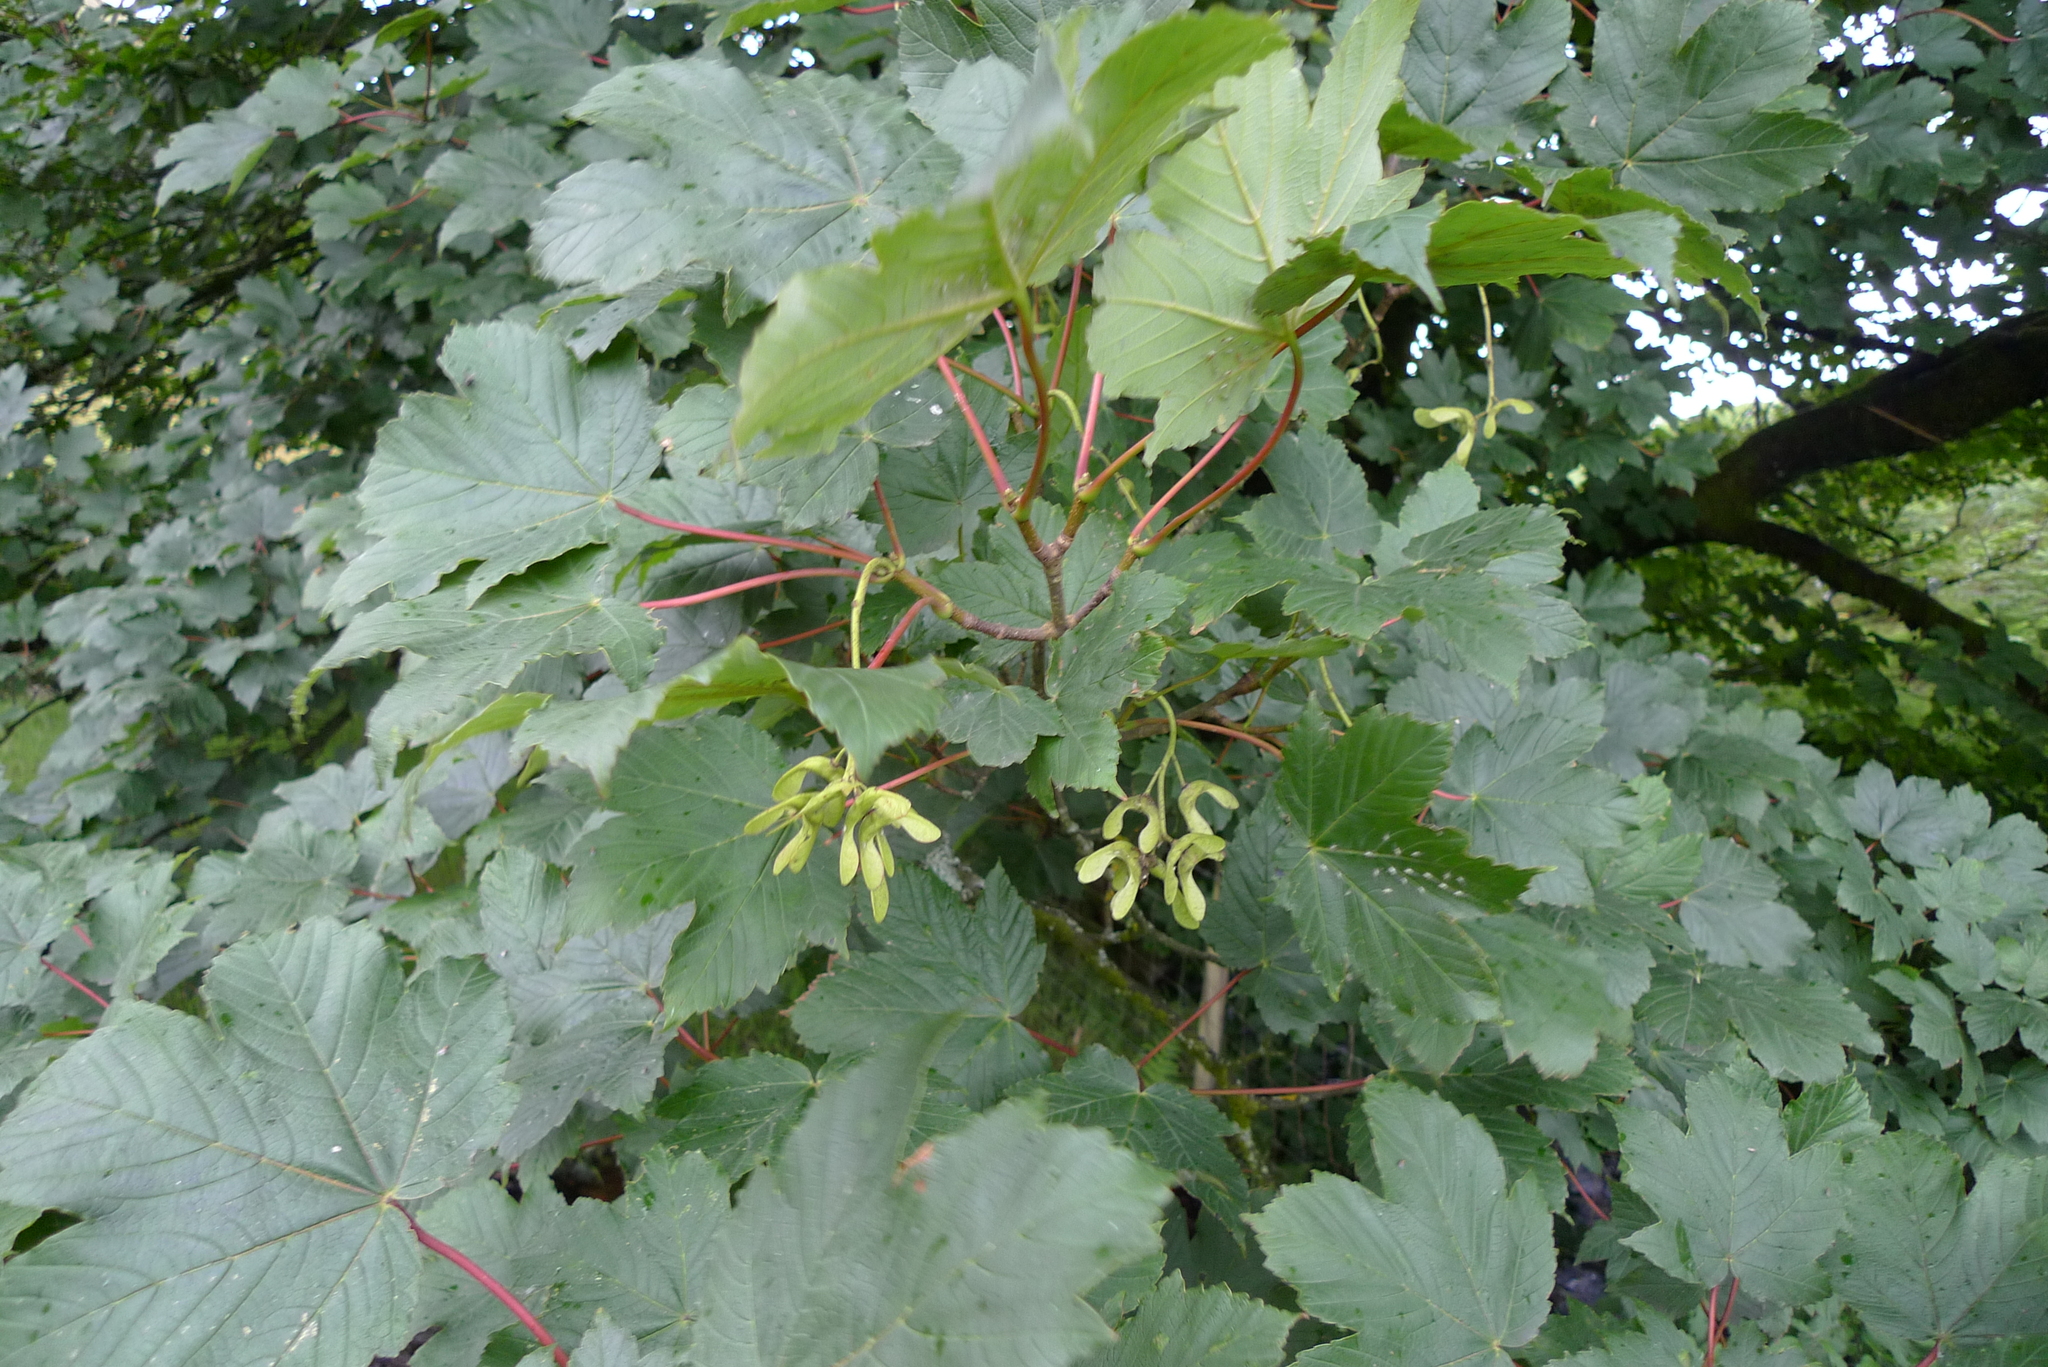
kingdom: Plantae
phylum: Tracheophyta
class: Magnoliopsida
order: Sapindales
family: Sapindaceae
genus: Acer
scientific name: Acer pseudoplatanus
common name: Sycamore
